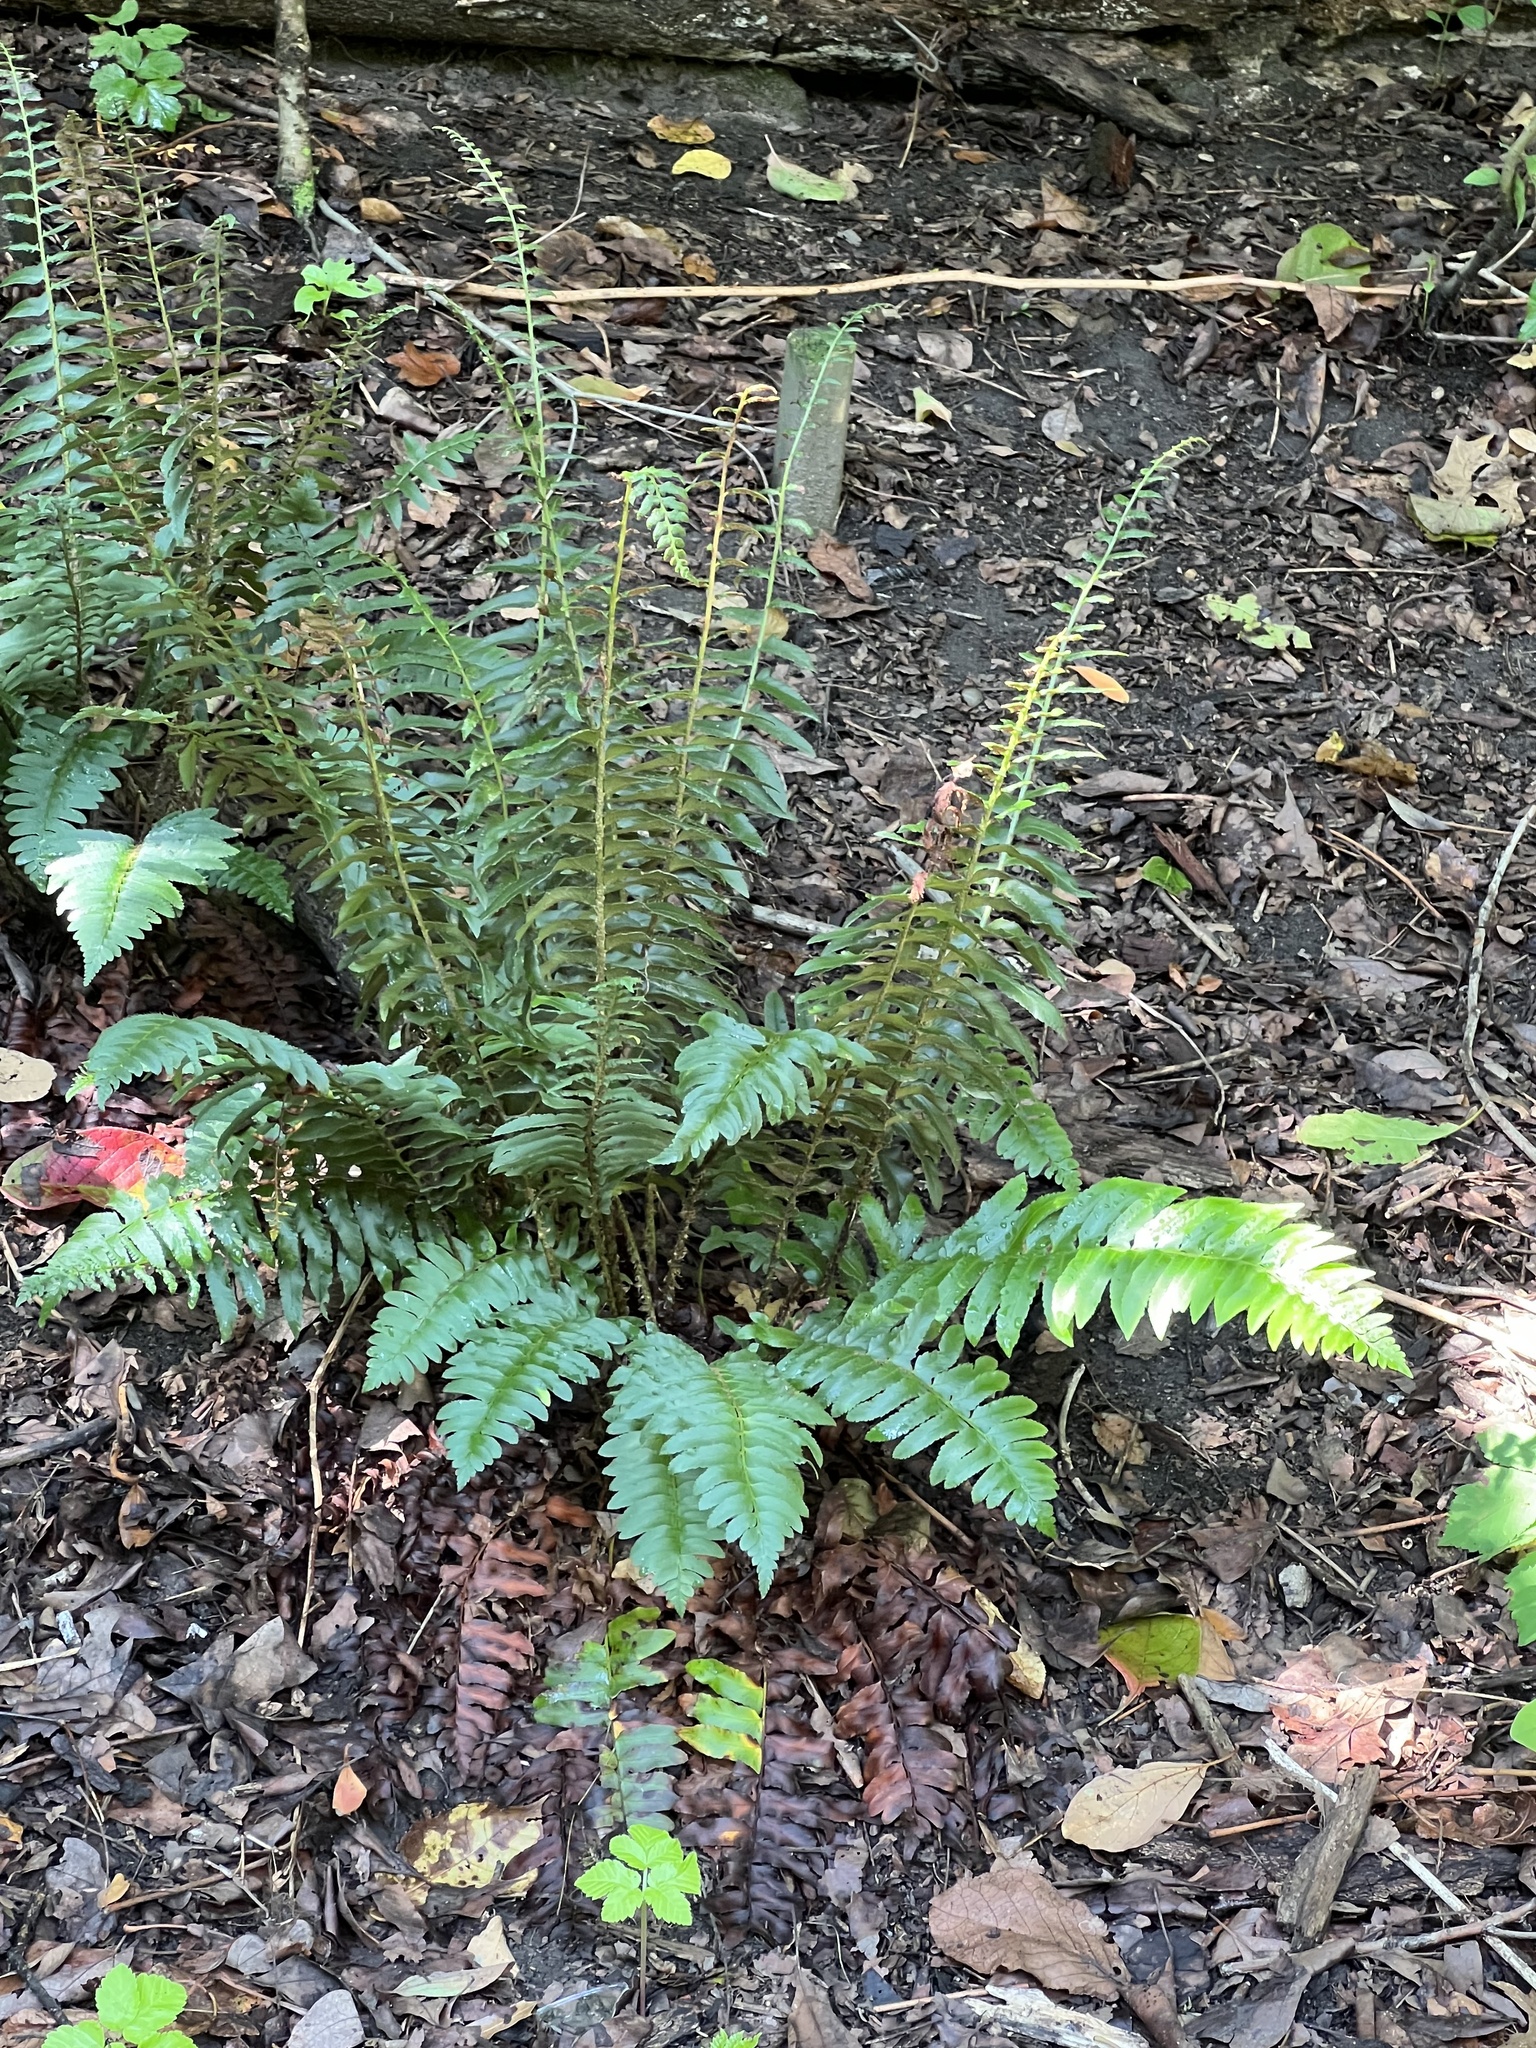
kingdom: Plantae
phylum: Tracheophyta
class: Polypodiopsida
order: Polypodiales
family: Dryopteridaceae
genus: Polystichum
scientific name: Polystichum acrostichoides
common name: Christmas fern
